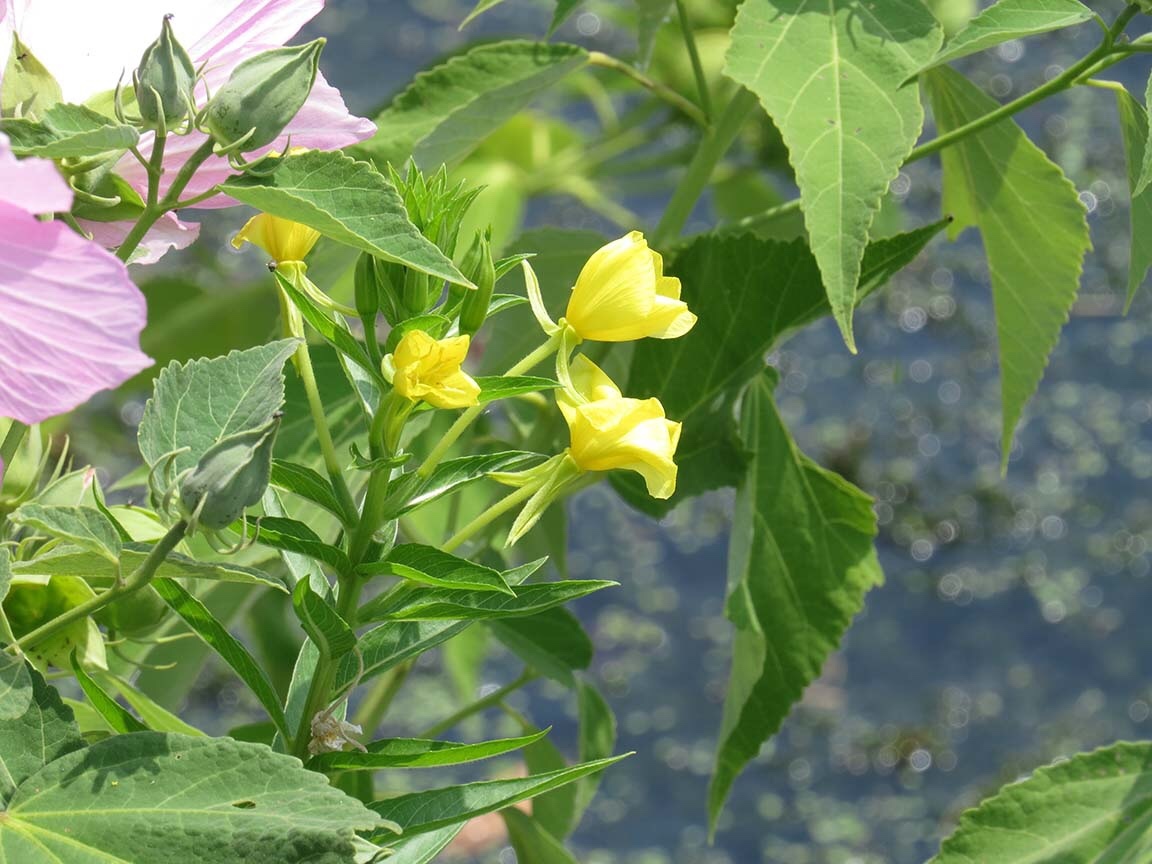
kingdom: Plantae
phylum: Tracheophyta
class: Magnoliopsida
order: Myrtales
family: Onagraceae
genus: Oenothera
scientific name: Oenothera biennis
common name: Common evening-primrose
